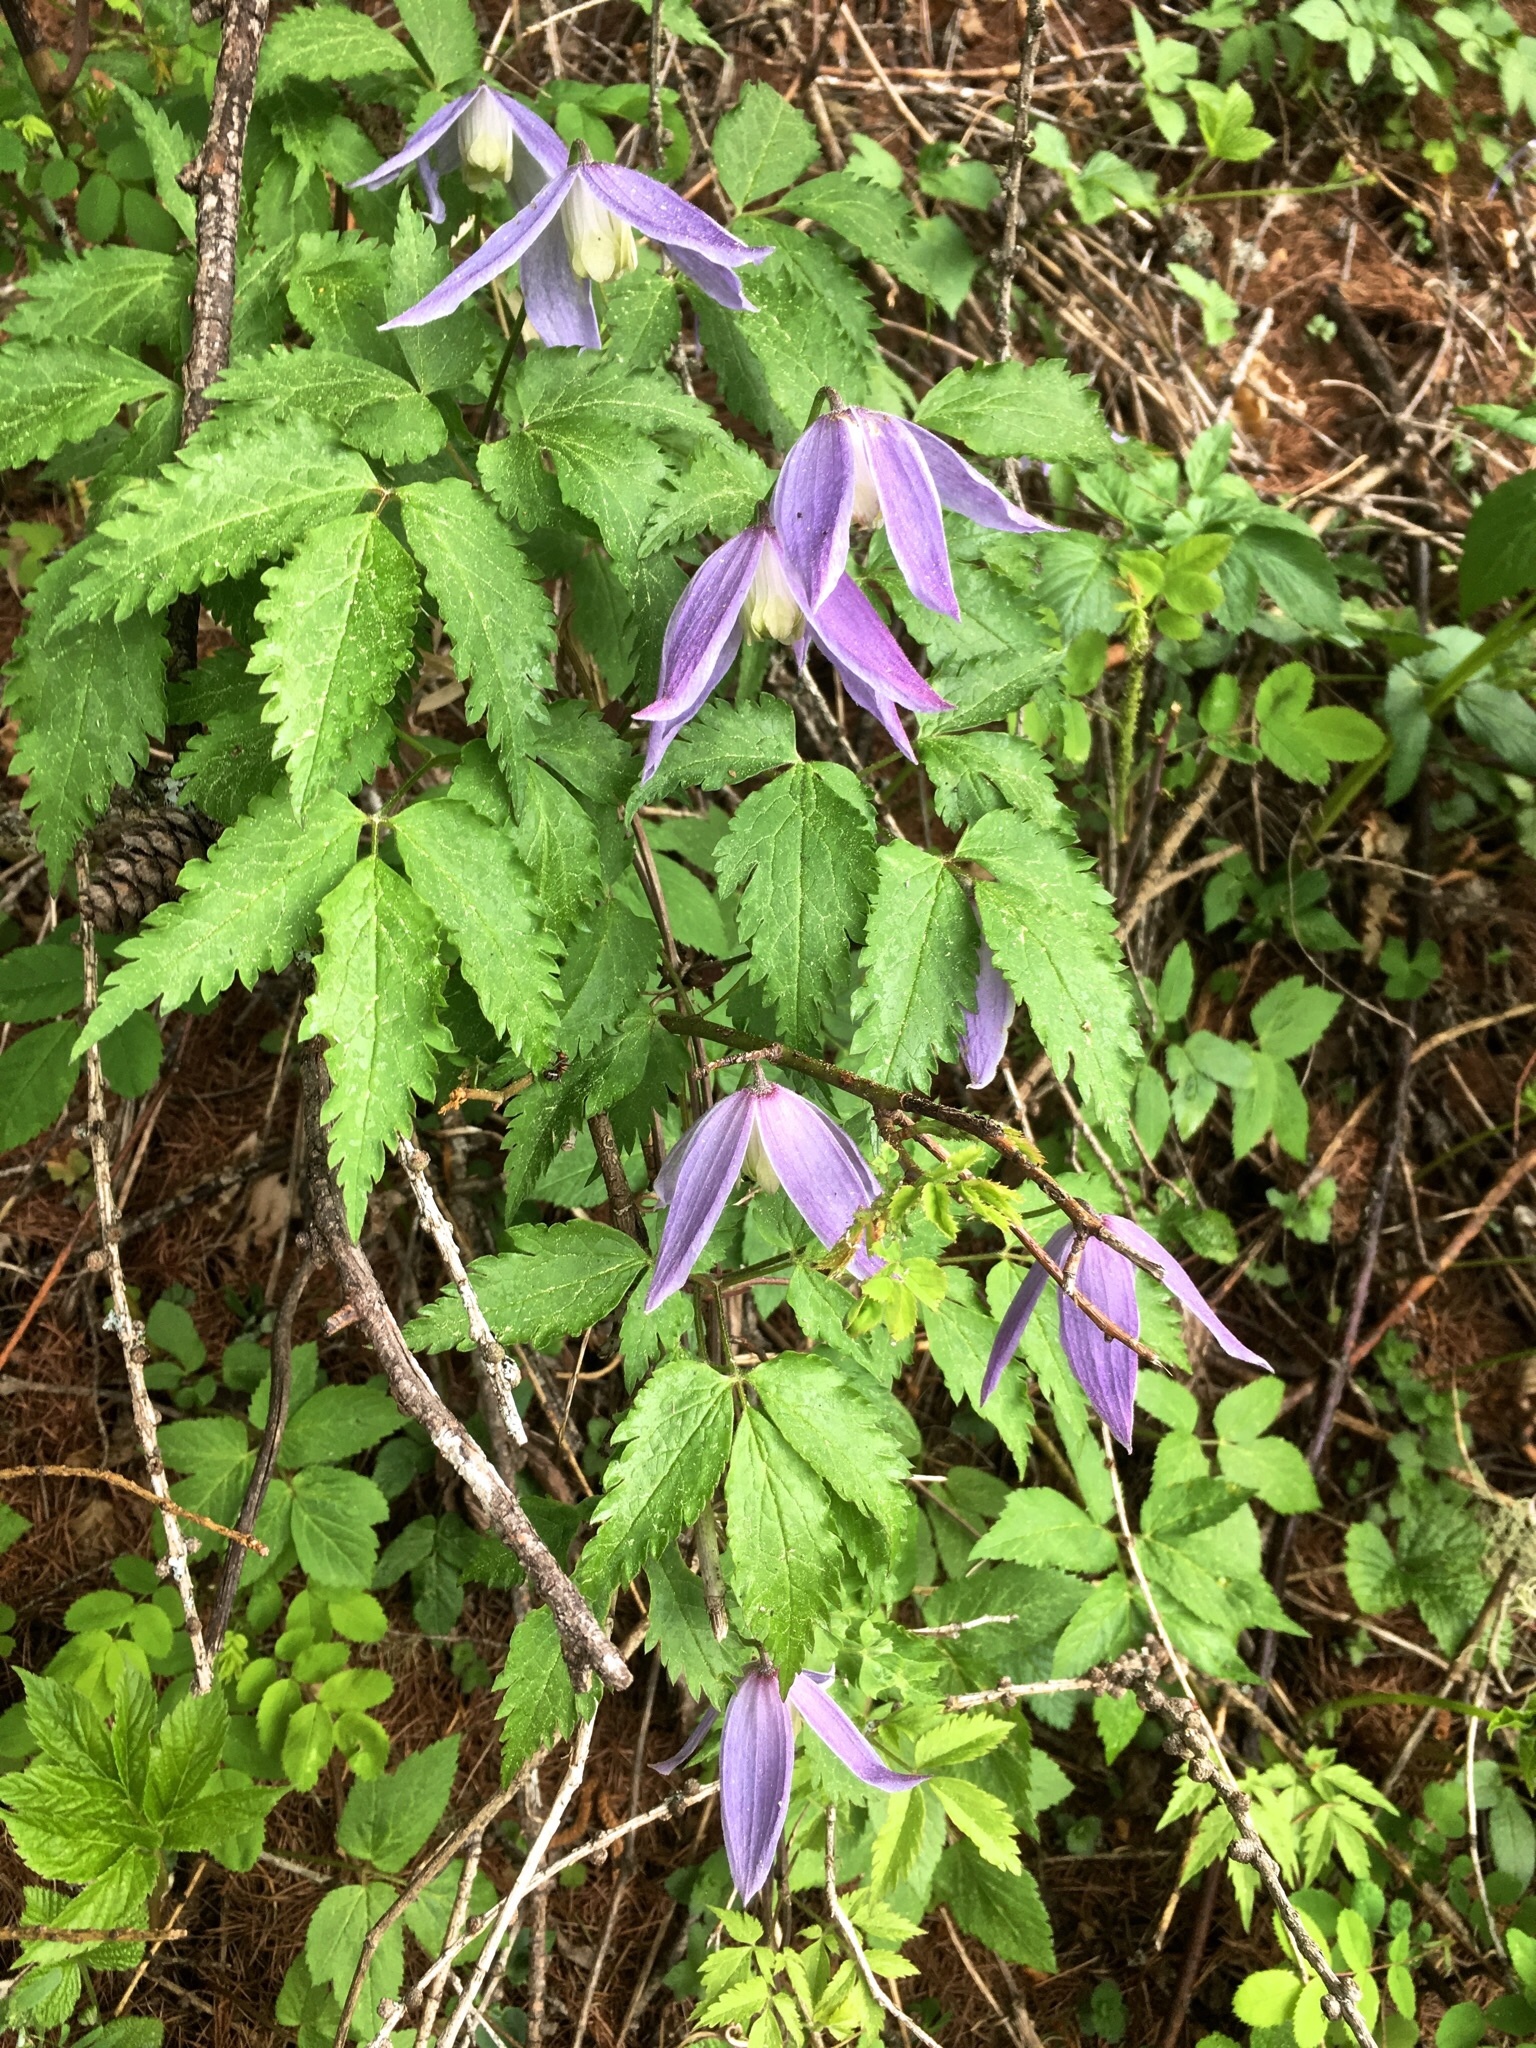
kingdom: Plantae
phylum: Tracheophyta
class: Magnoliopsida
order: Ranunculales
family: Ranunculaceae
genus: Clematis
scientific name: Clematis alpina
